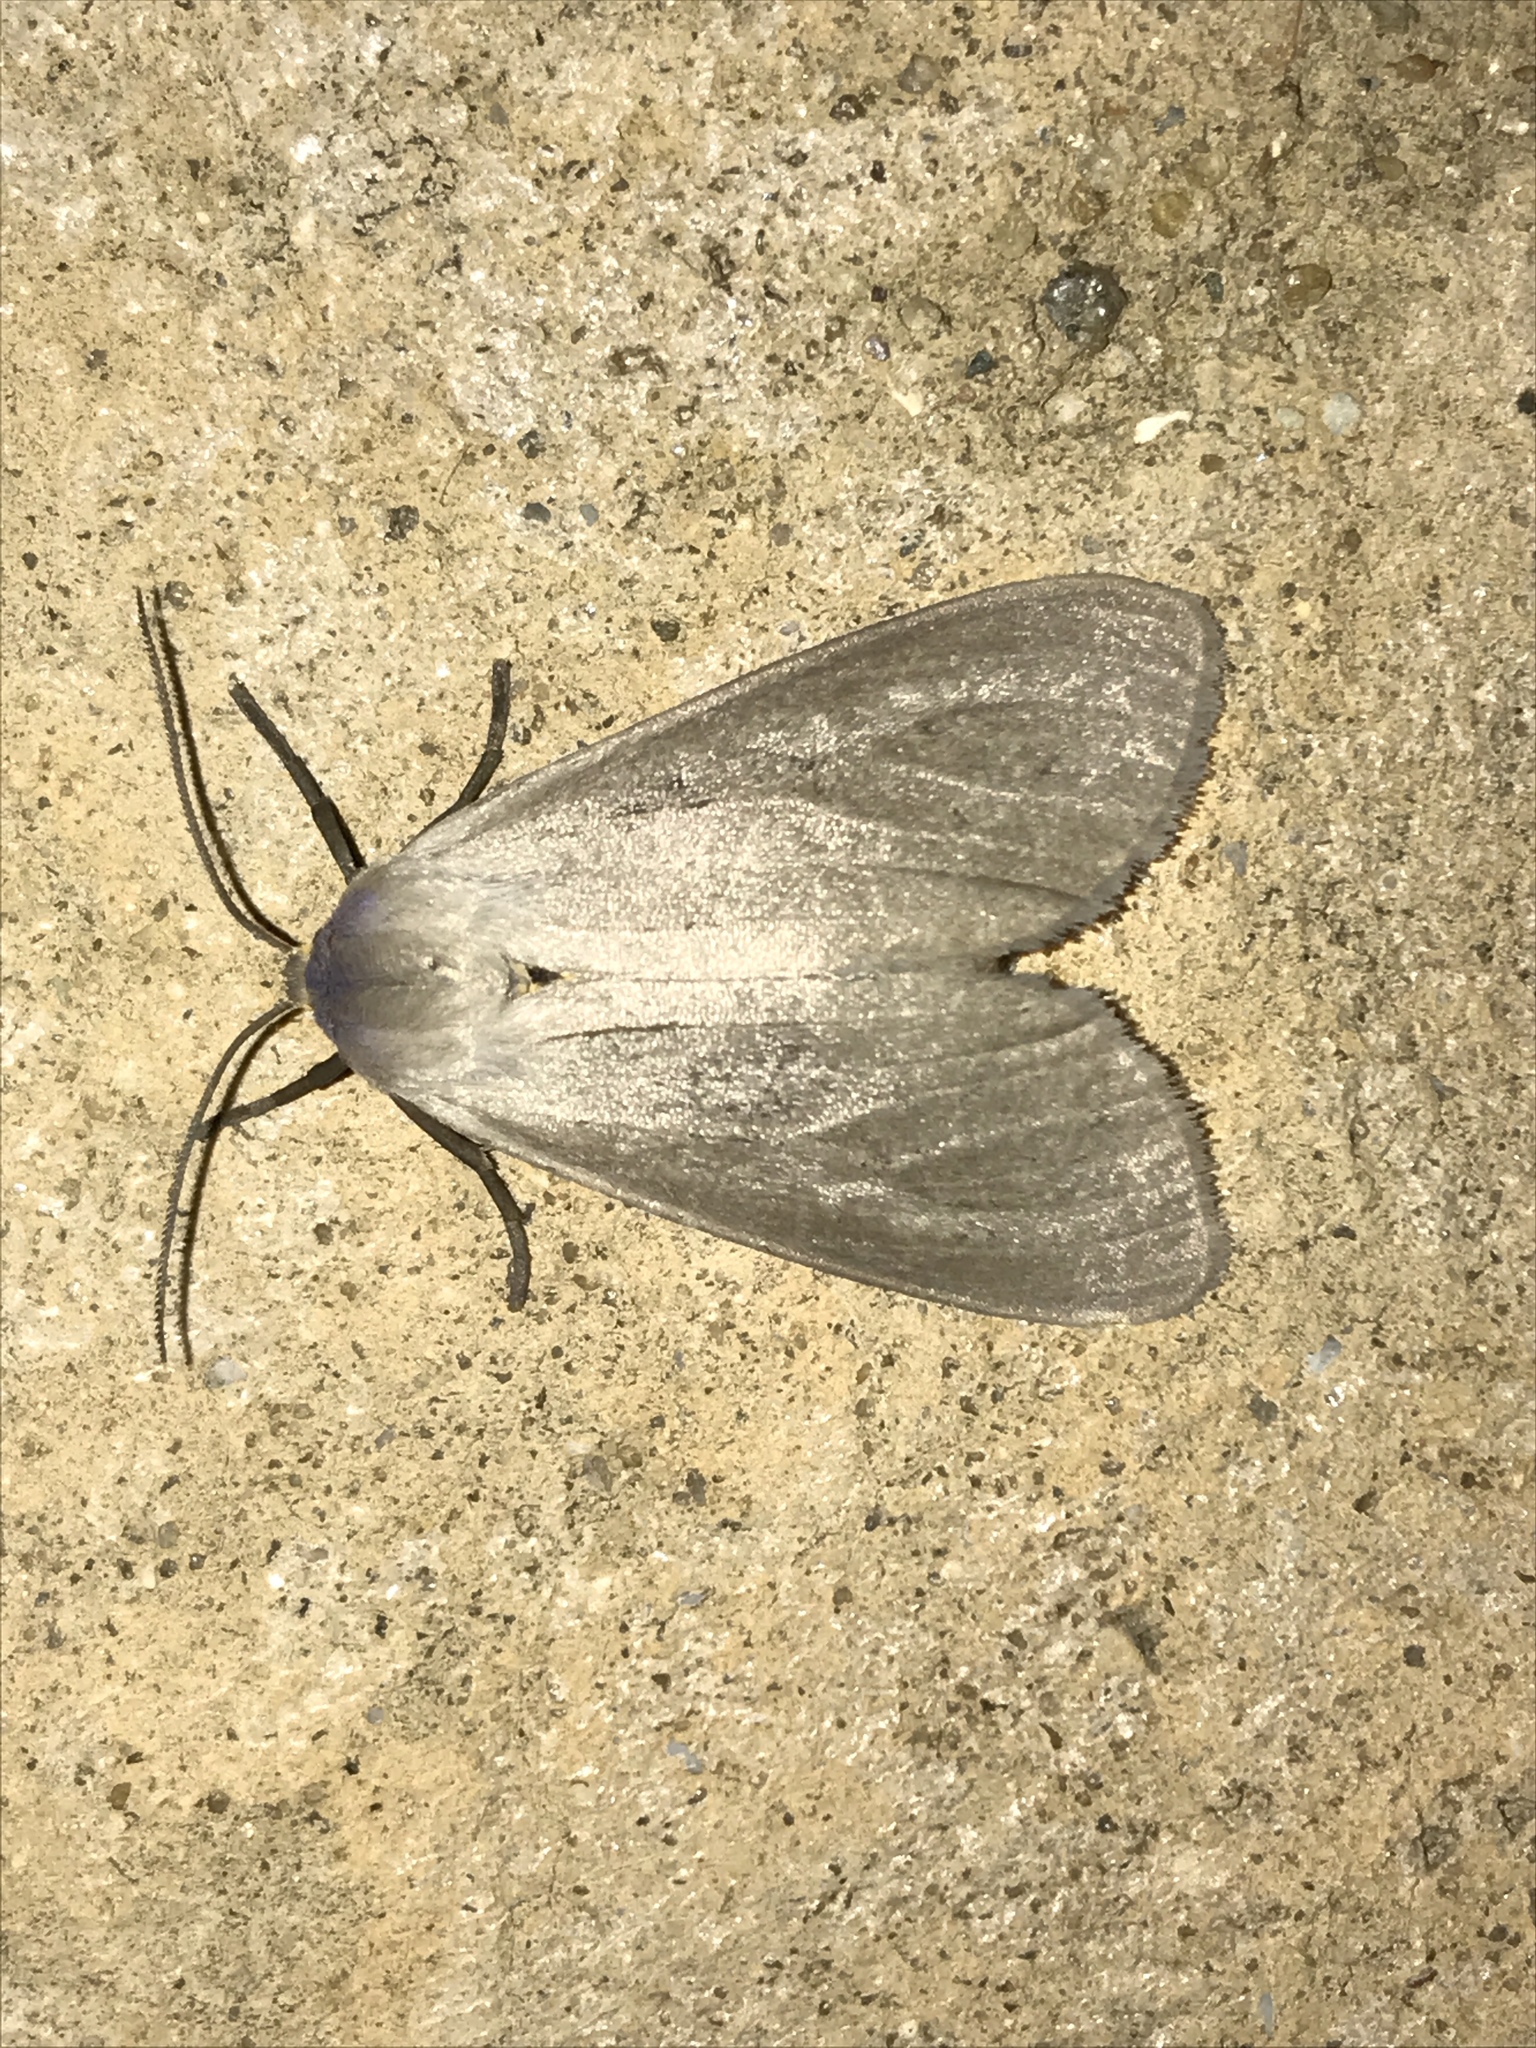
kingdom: Animalia
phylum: Arthropoda
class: Insecta
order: Lepidoptera
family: Erebidae
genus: Euchaetes
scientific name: Euchaetes egle
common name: Milkweed tussock moth
